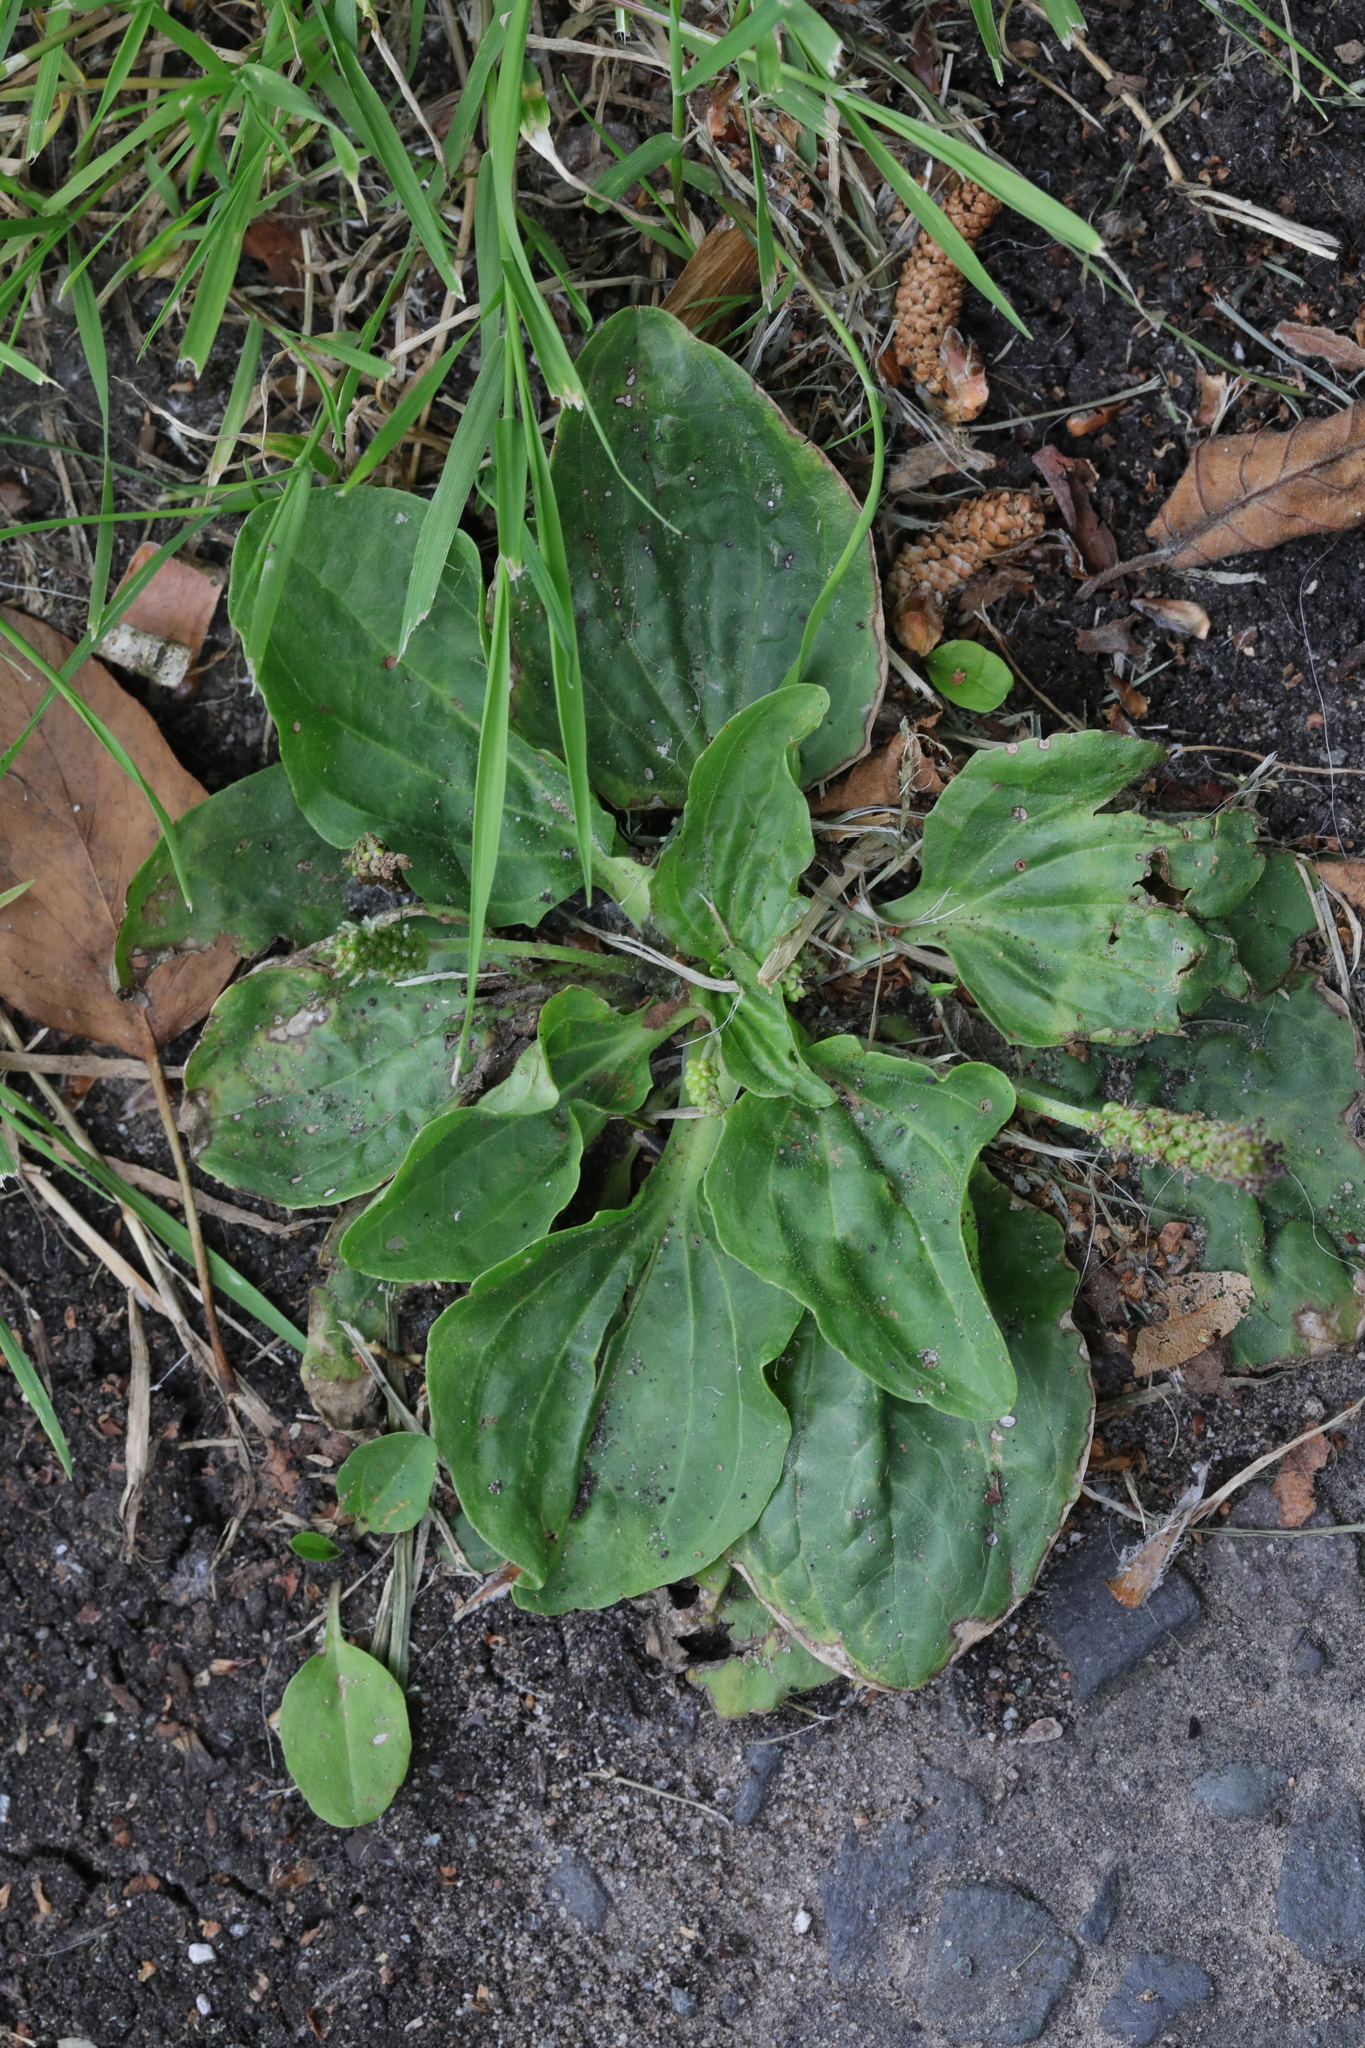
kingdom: Plantae
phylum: Tracheophyta
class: Magnoliopsida
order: Lamiales
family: Plantaginaceae
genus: Plantago
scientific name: Plantago major
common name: Common plantain
